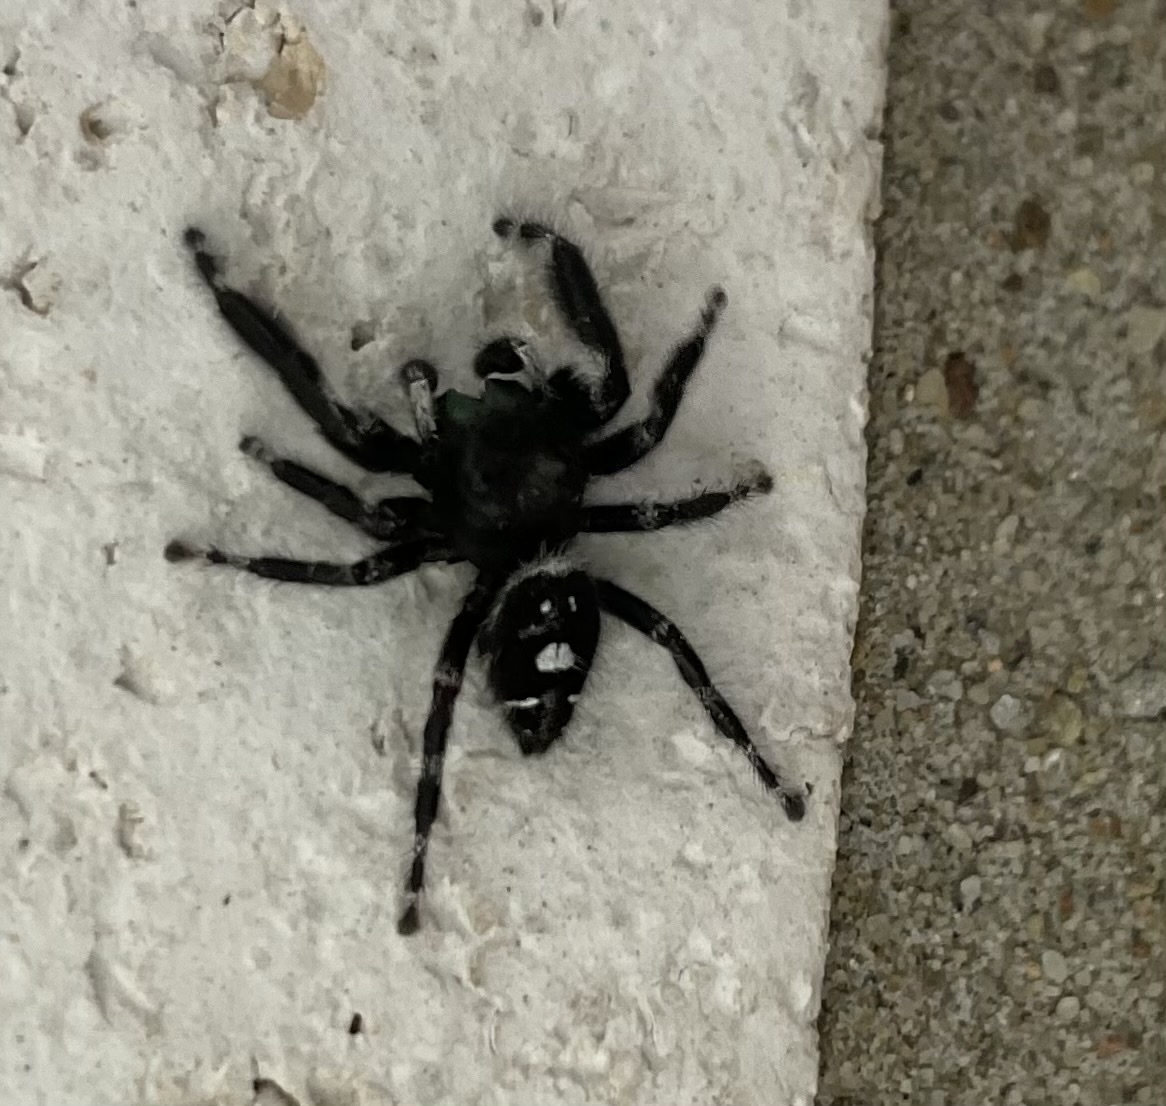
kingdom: Animalia
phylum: Arthropoda
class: Arachnida
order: Araneae
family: Salticidae
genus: Phidippus
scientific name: Phidippus audax
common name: Bold jumper
